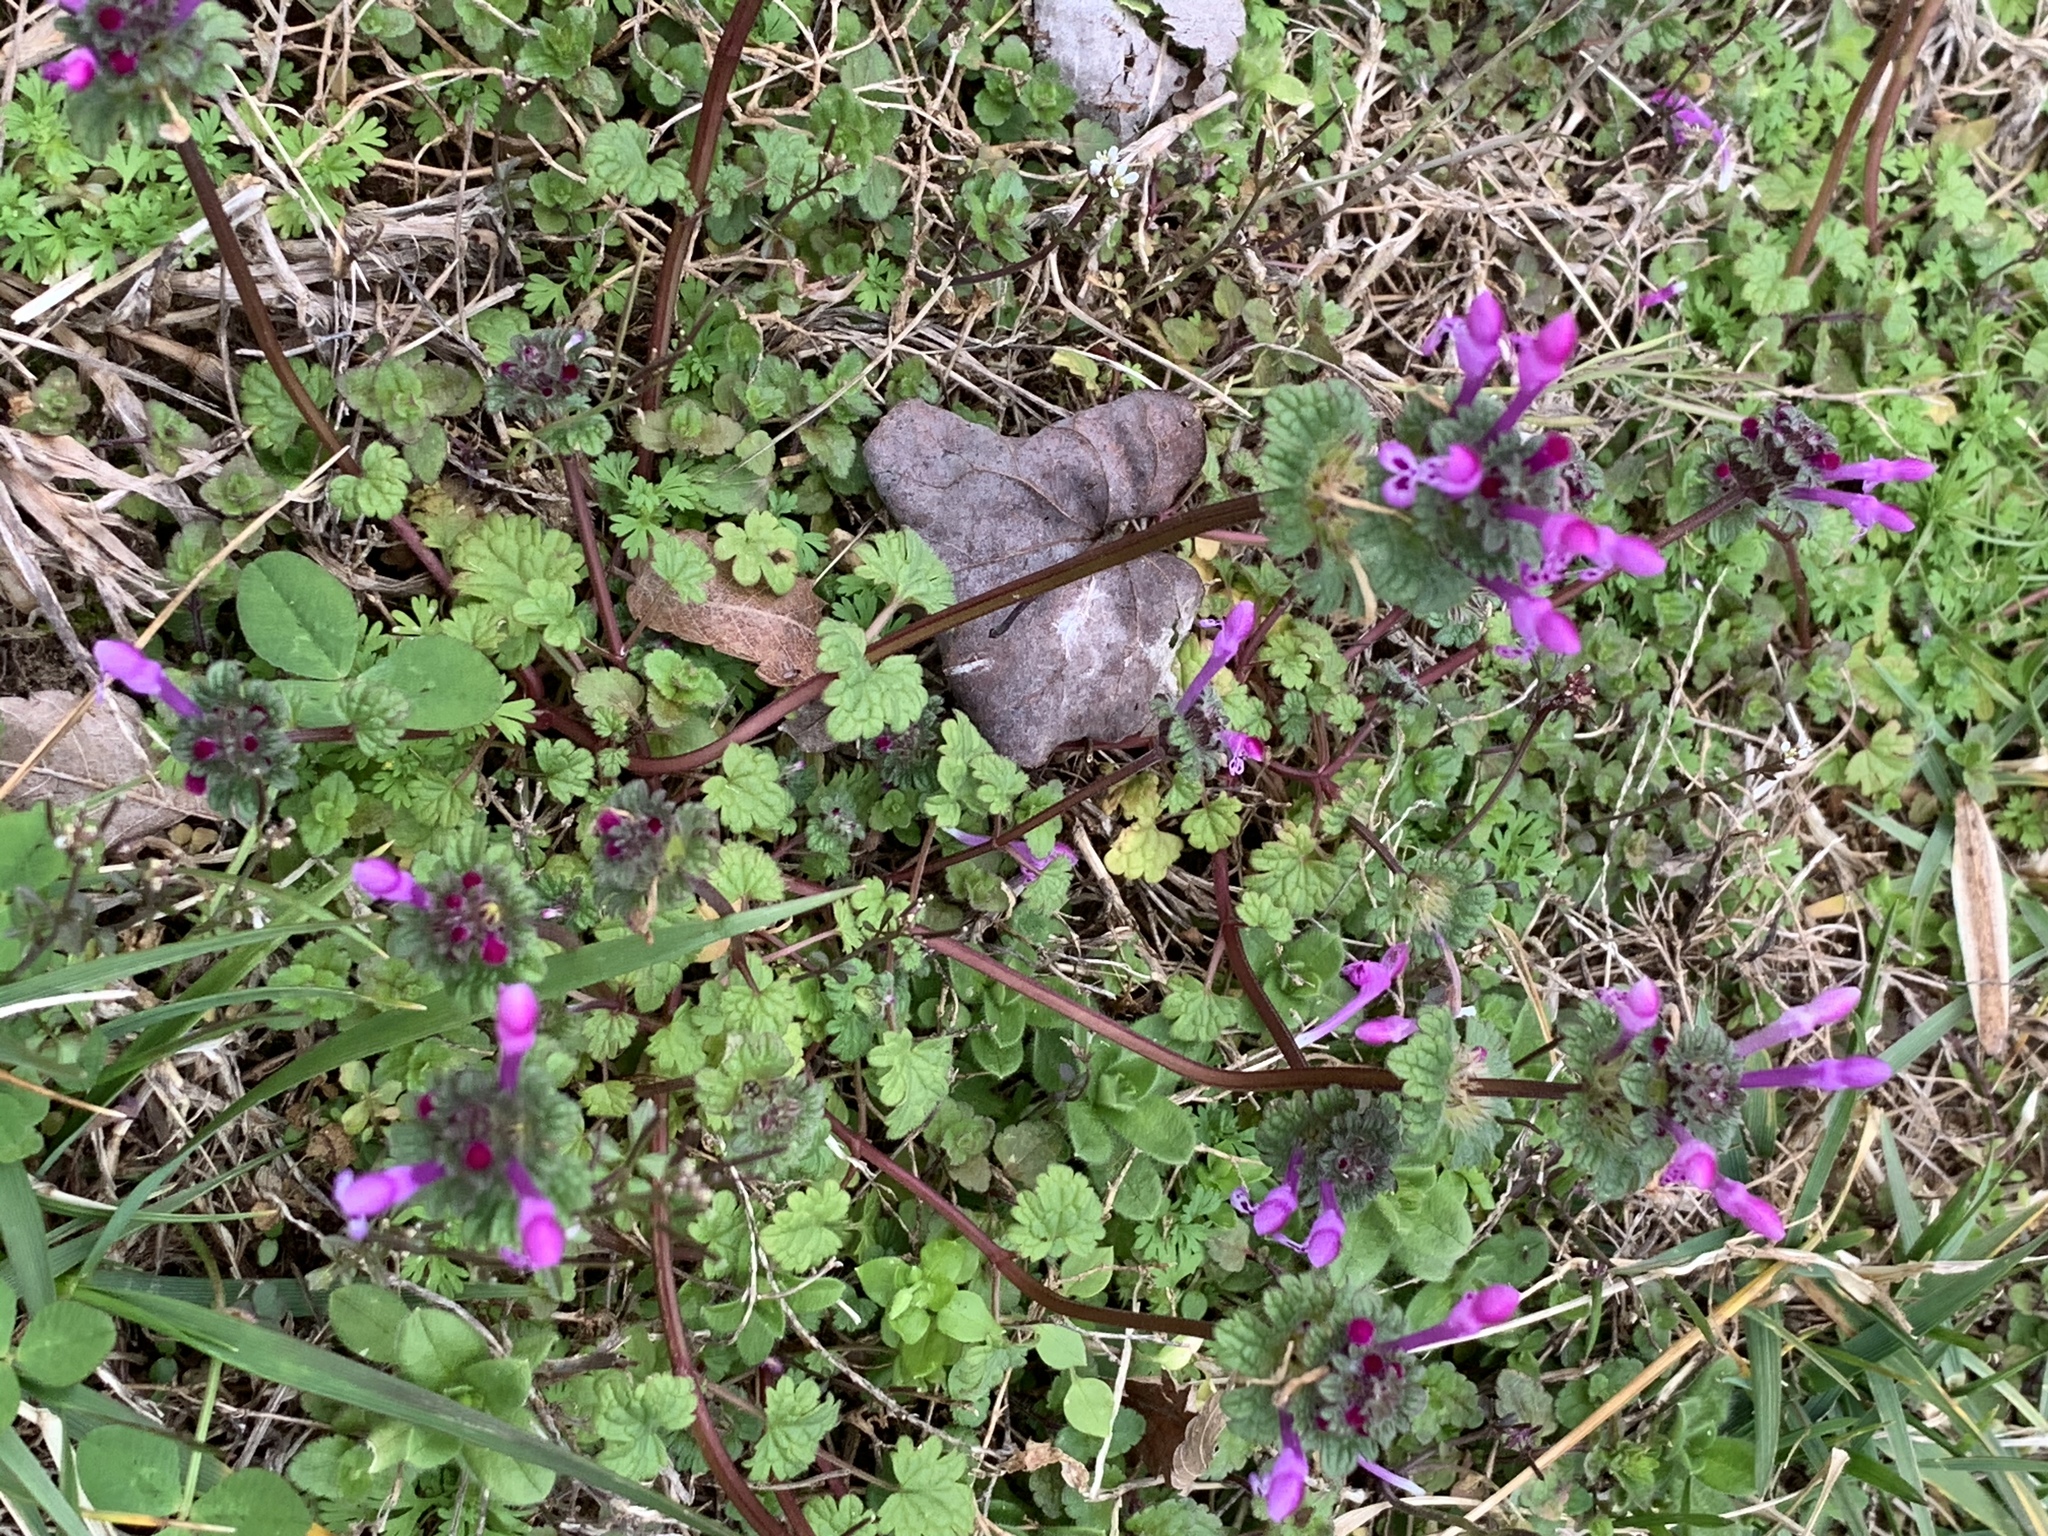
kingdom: Plantae
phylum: Tracheophyta
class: Magnoliopsida
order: Lamiales
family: Lamiaceae
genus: Lamium
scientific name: Lamium amplexicaule
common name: Henbit dead-nettle
